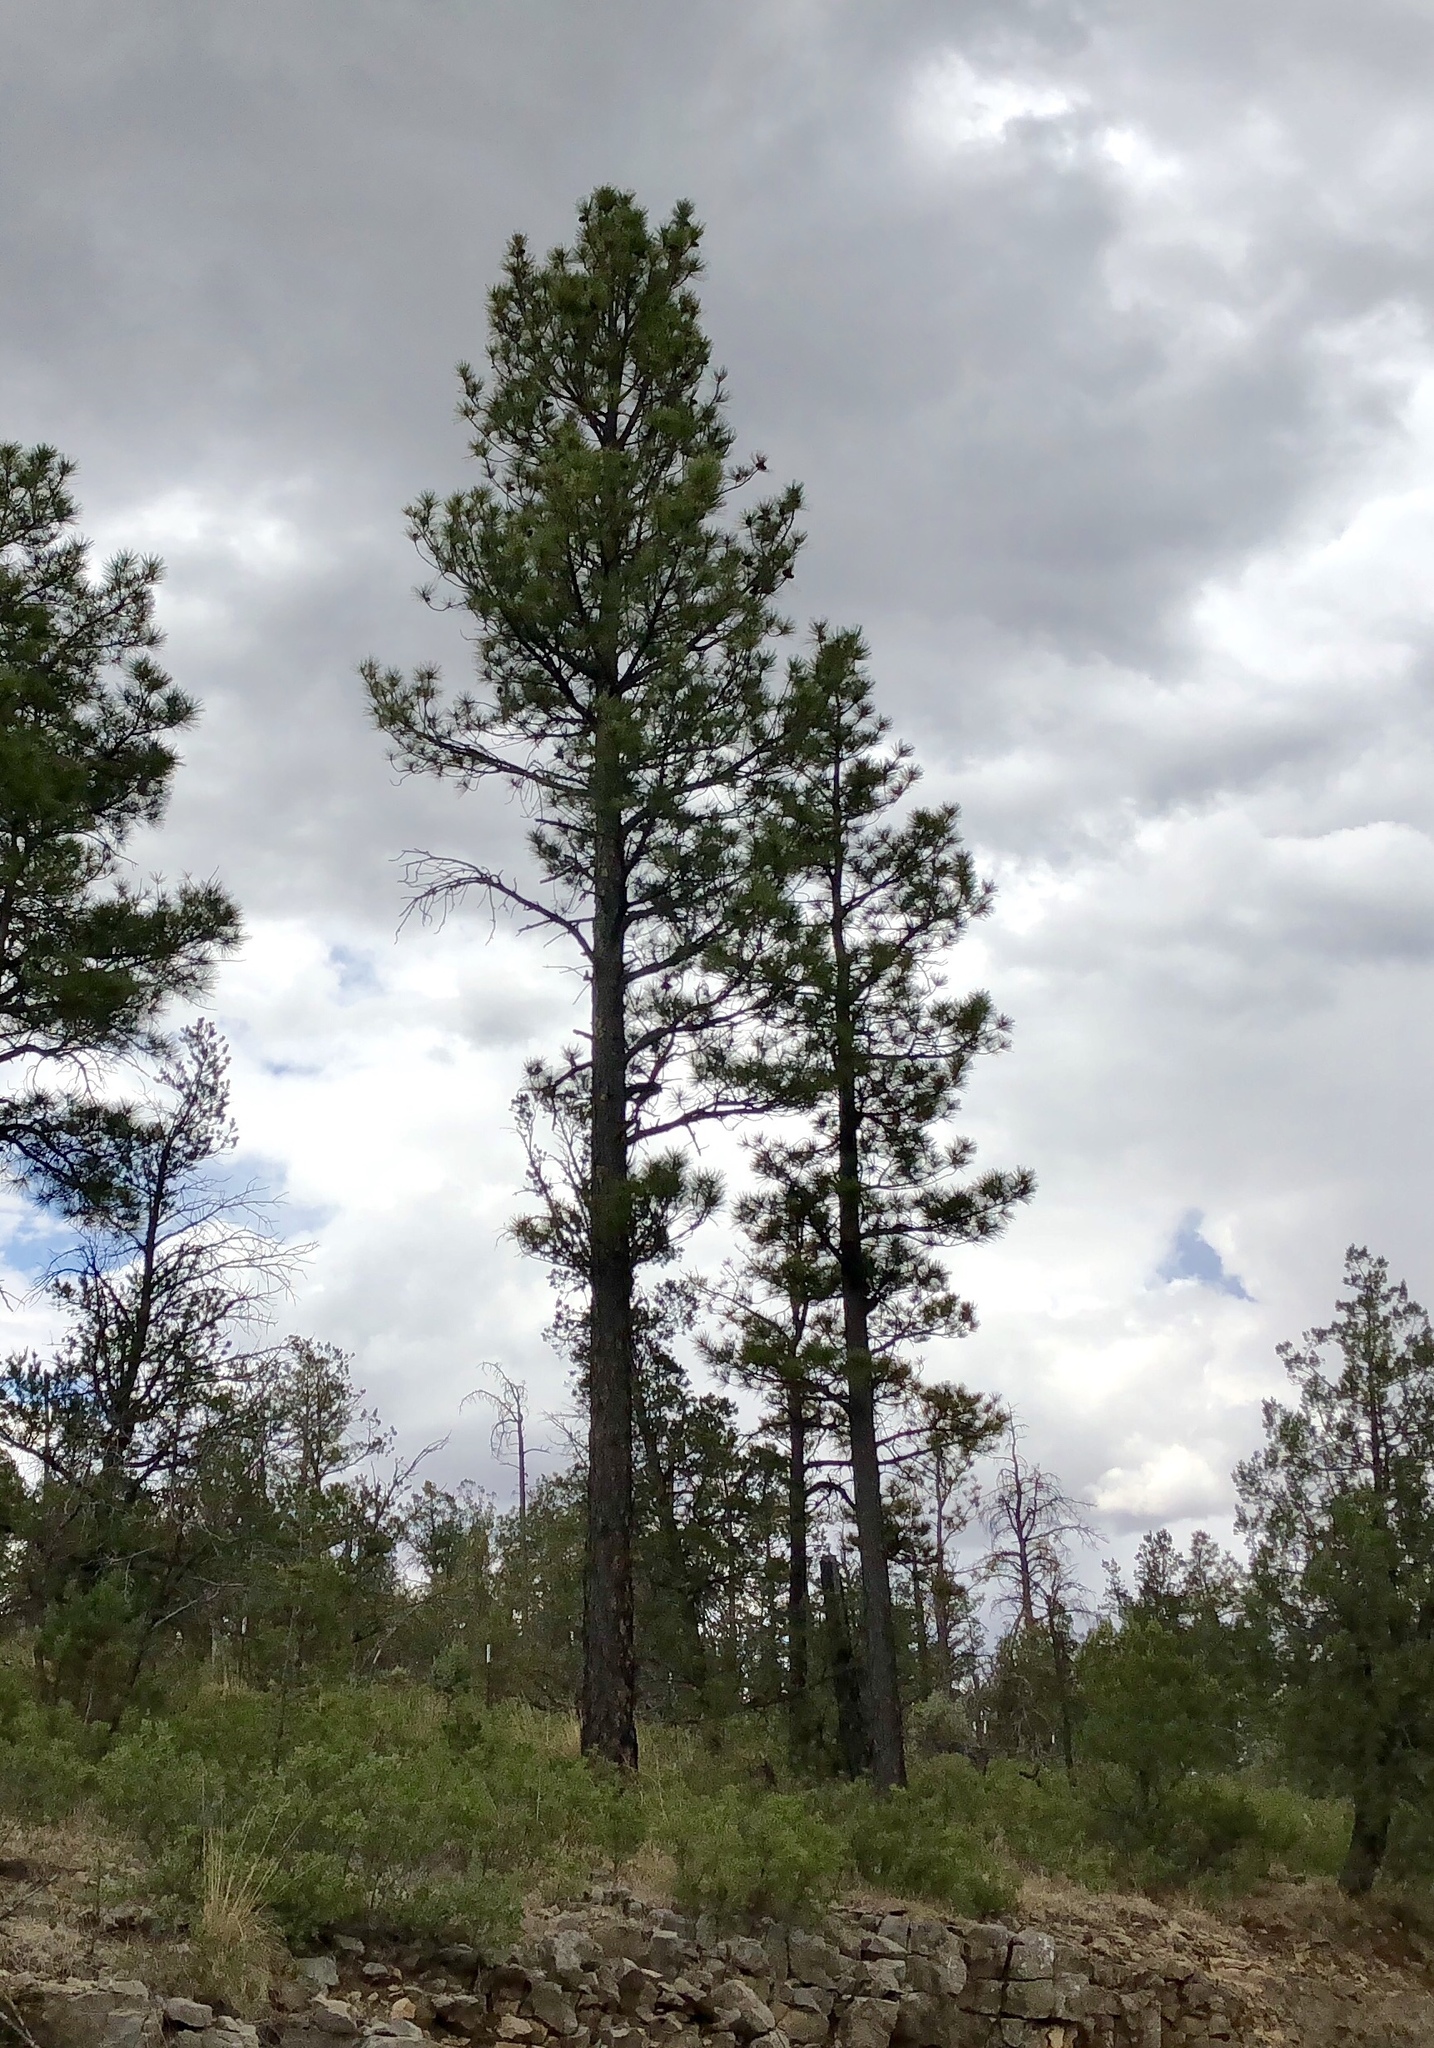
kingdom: Plantae
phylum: Tracheophyta
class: Pinopsida
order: Pinales
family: Pinaceae
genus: Pinus
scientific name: Pinus ponderosa
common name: Western yellow-pine
